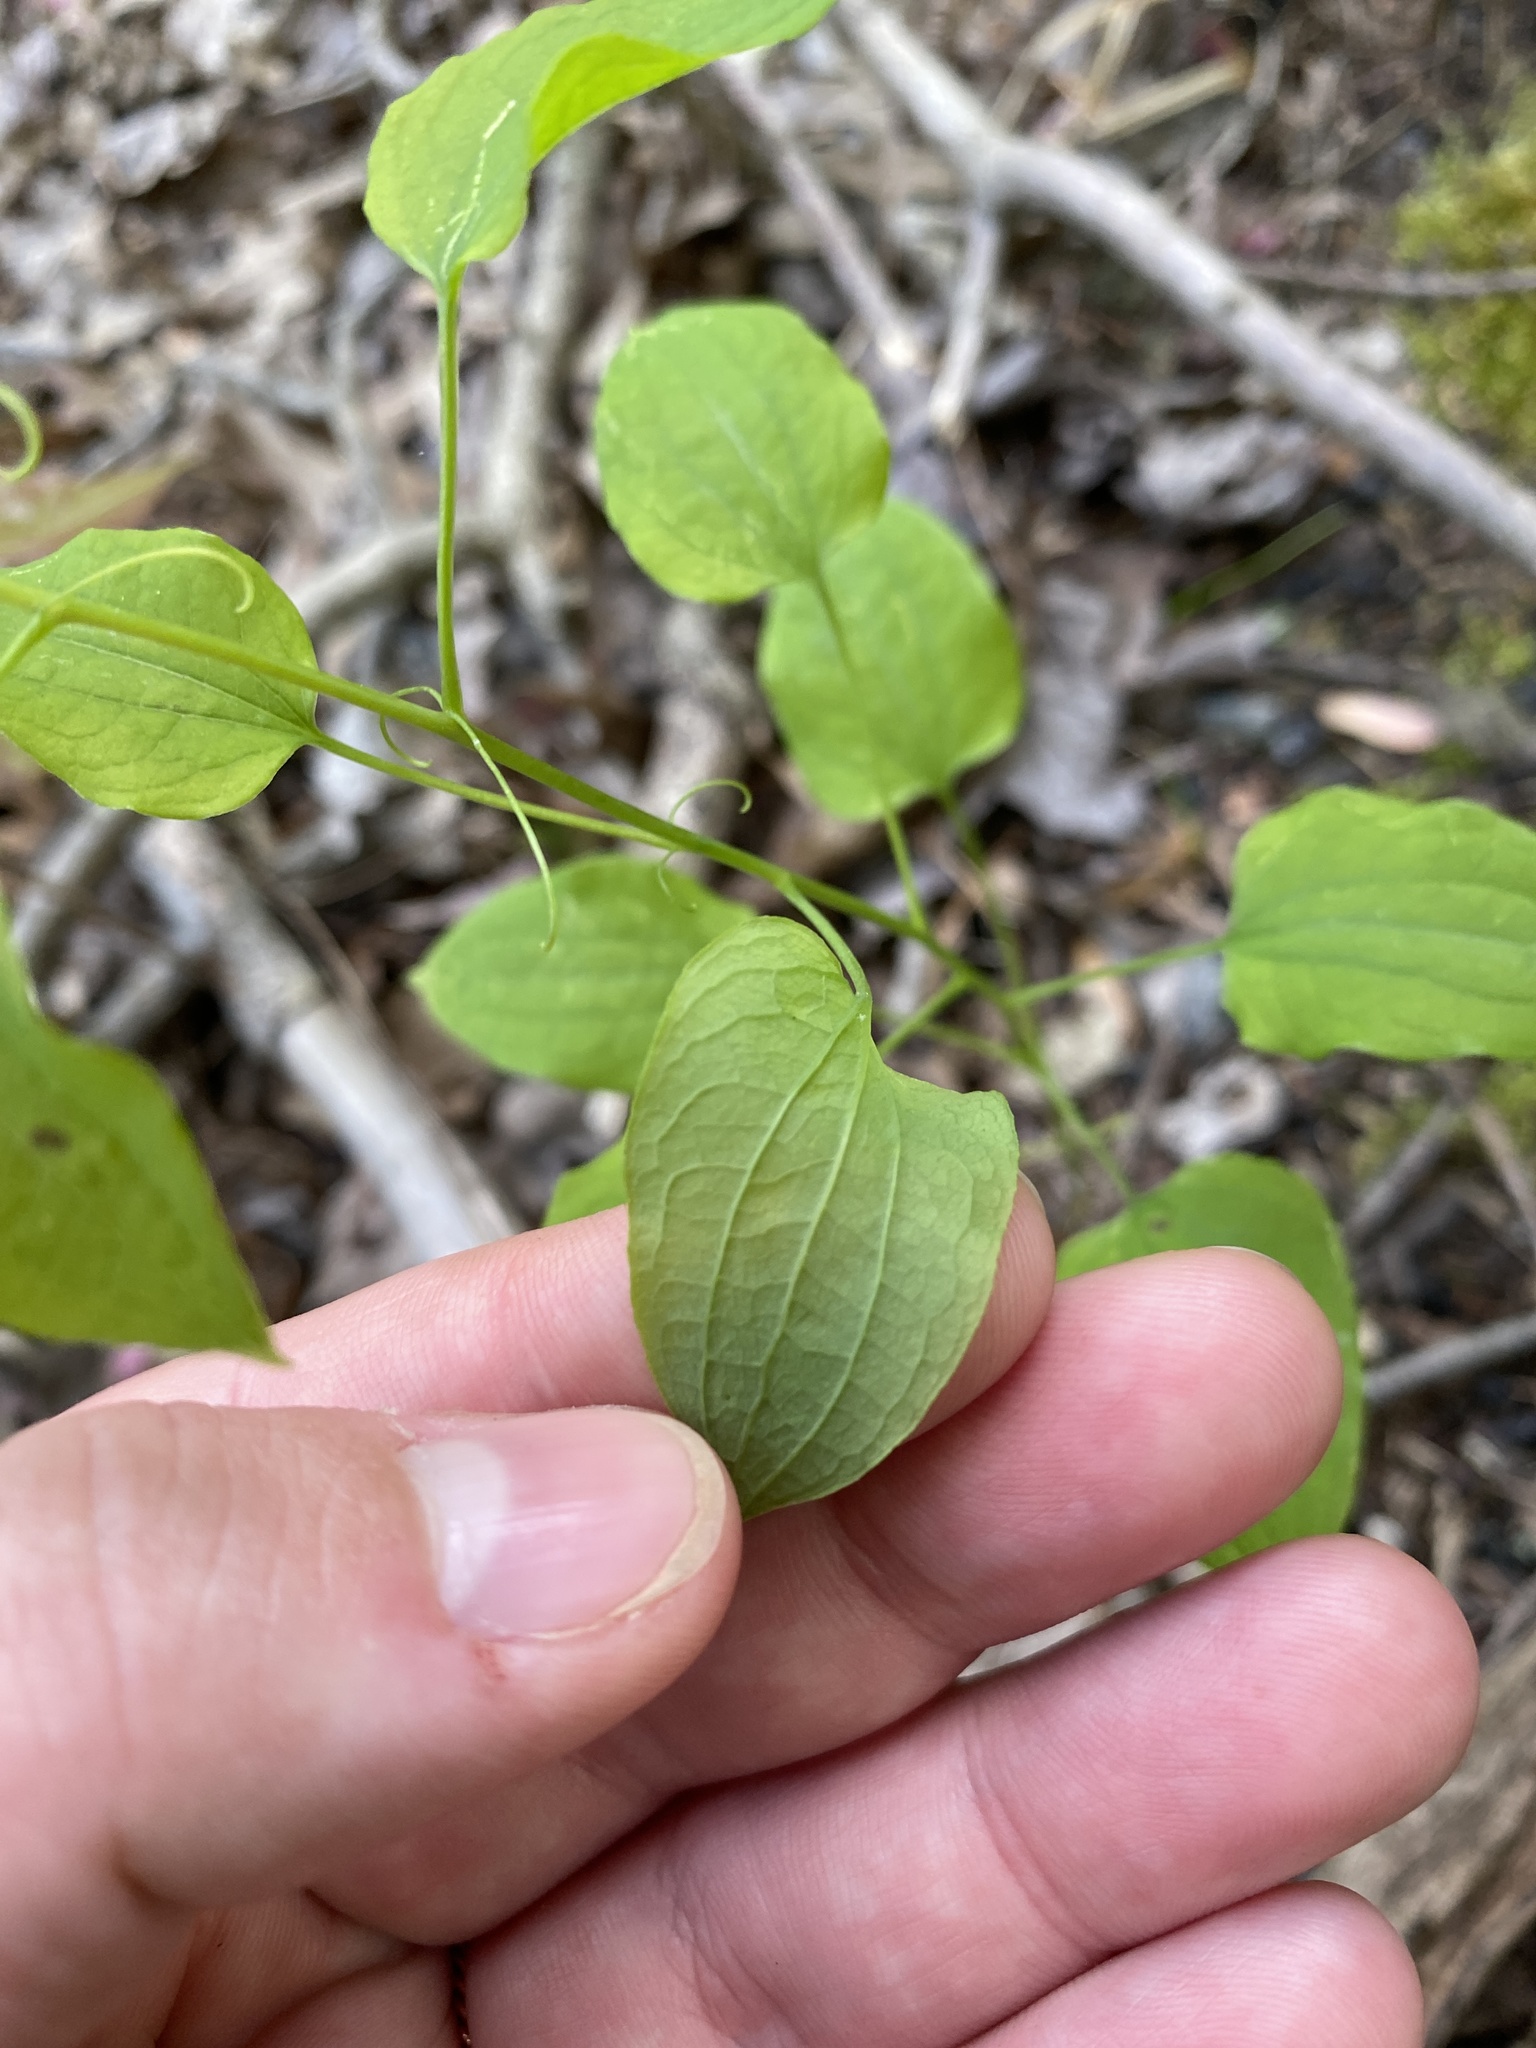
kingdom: Plantae
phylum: Tracheophyta
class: Liliopsida
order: Liliales
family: Smilacaceae
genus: Smilax
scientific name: Smilax herbacea
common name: Jacob's-ladder
